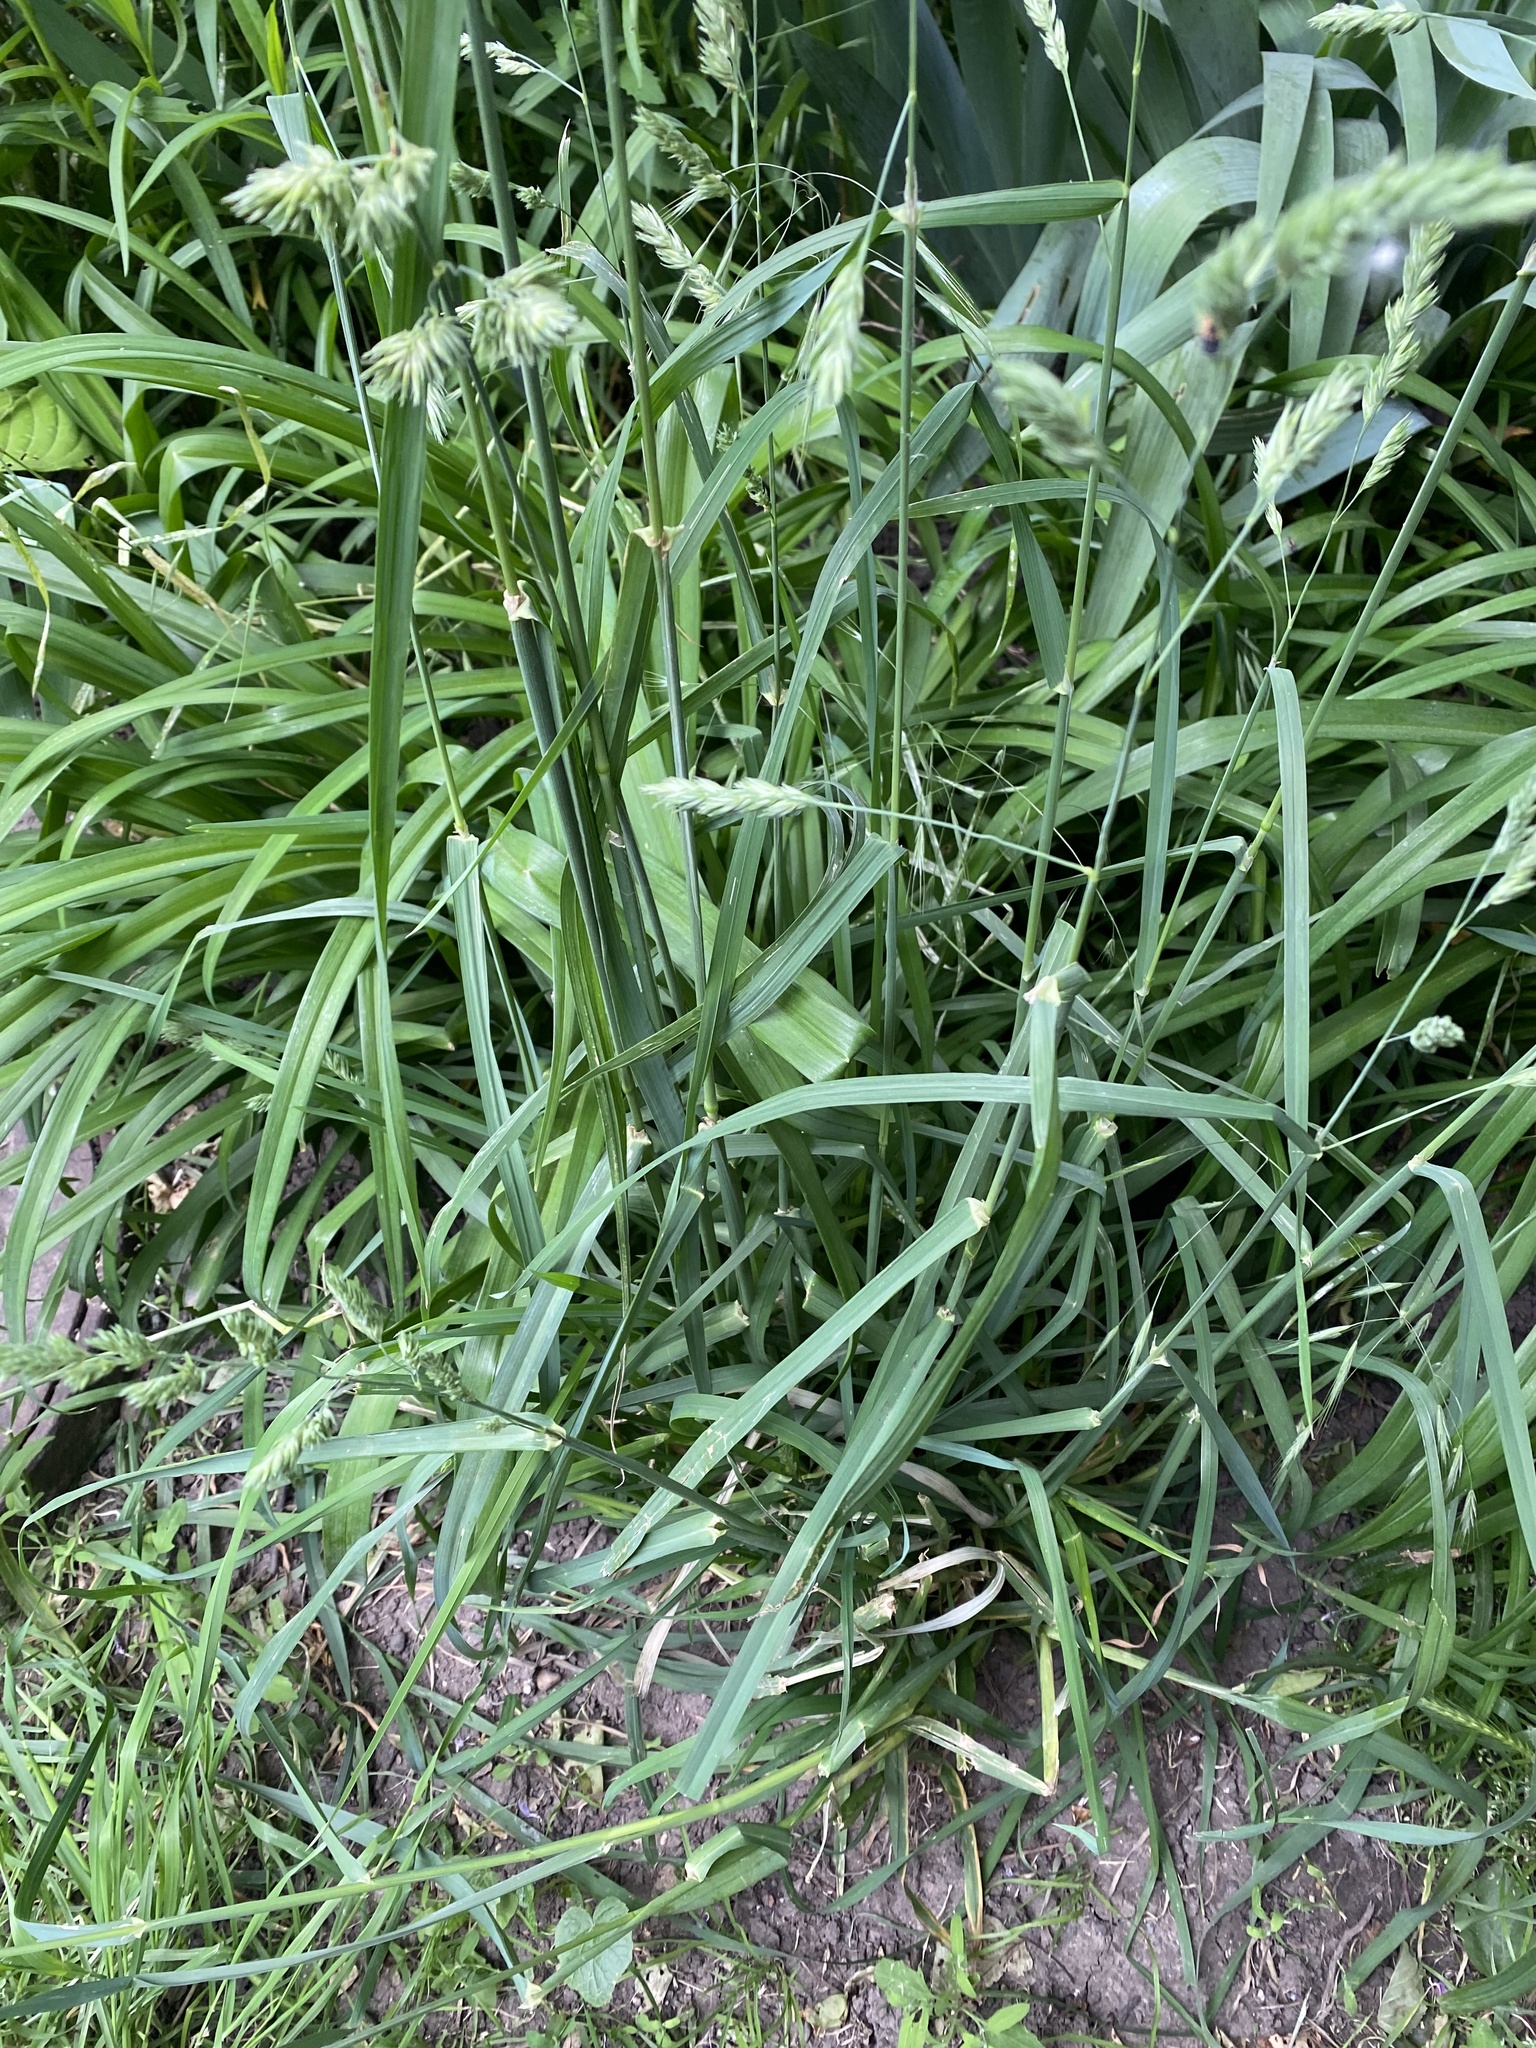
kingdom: Plantae
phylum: Tracheophyta
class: Liliopsida
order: Poales
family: Poaceae
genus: Dactylis
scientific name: Dactylis glomerata
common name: Orchardgrass
